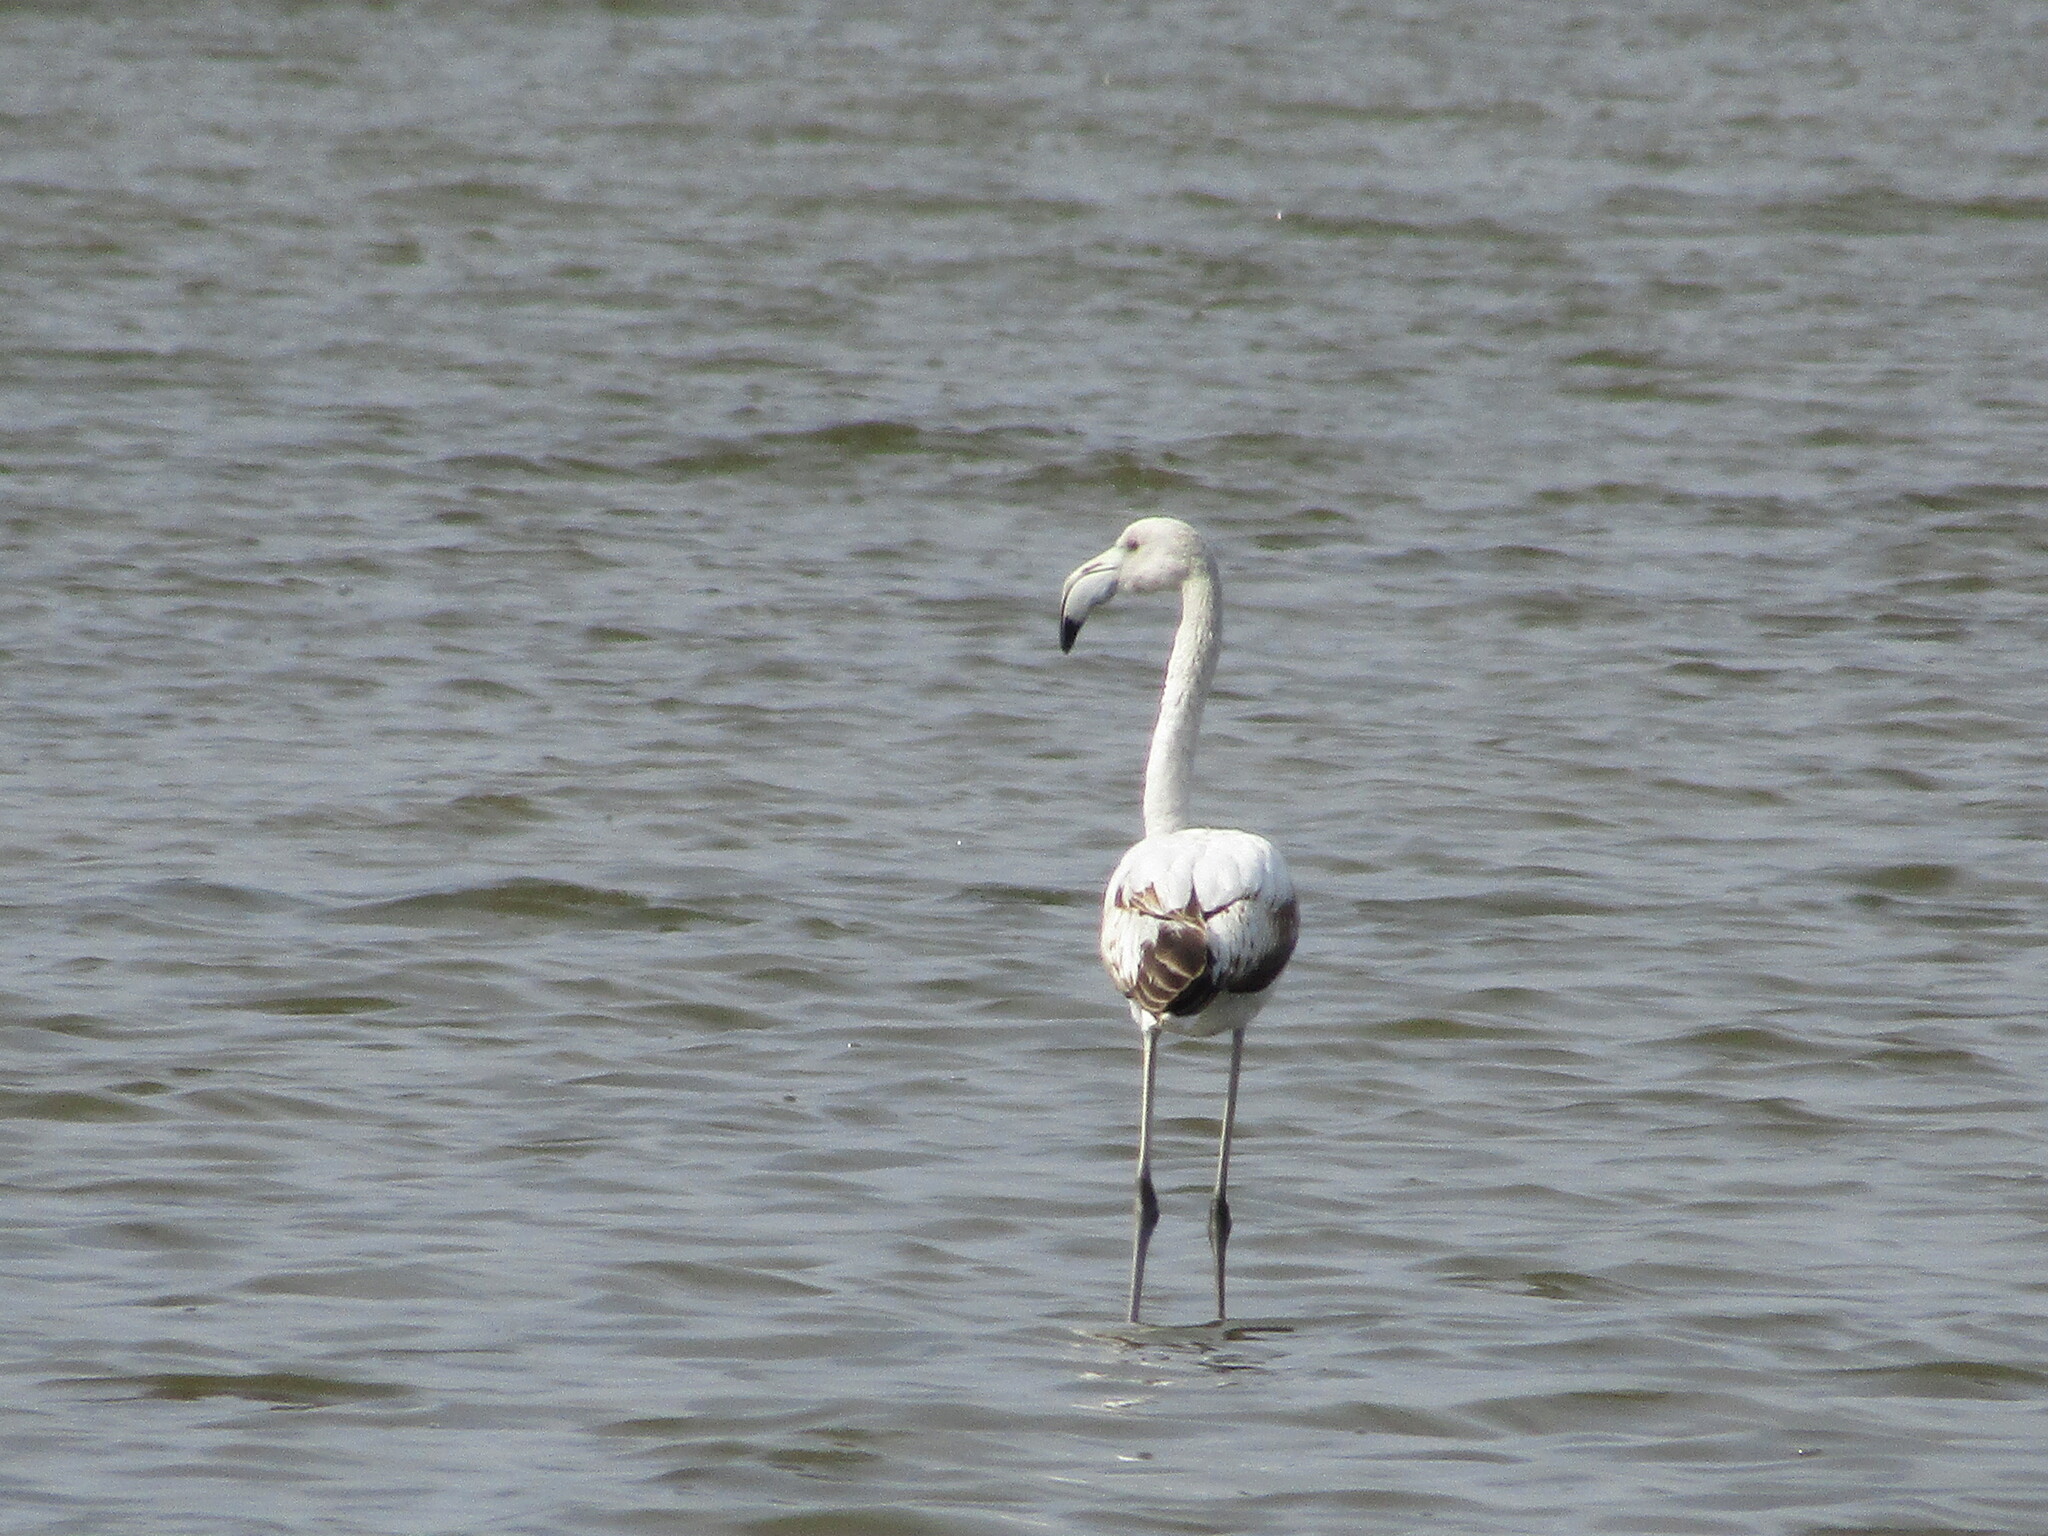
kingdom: Animalia
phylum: Chordata
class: Aves
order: Phoenicopteriformes
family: Phoenicopteridae
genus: Phoenicopterus
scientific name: Phoenicopterus roseus
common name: Greater flamingo
